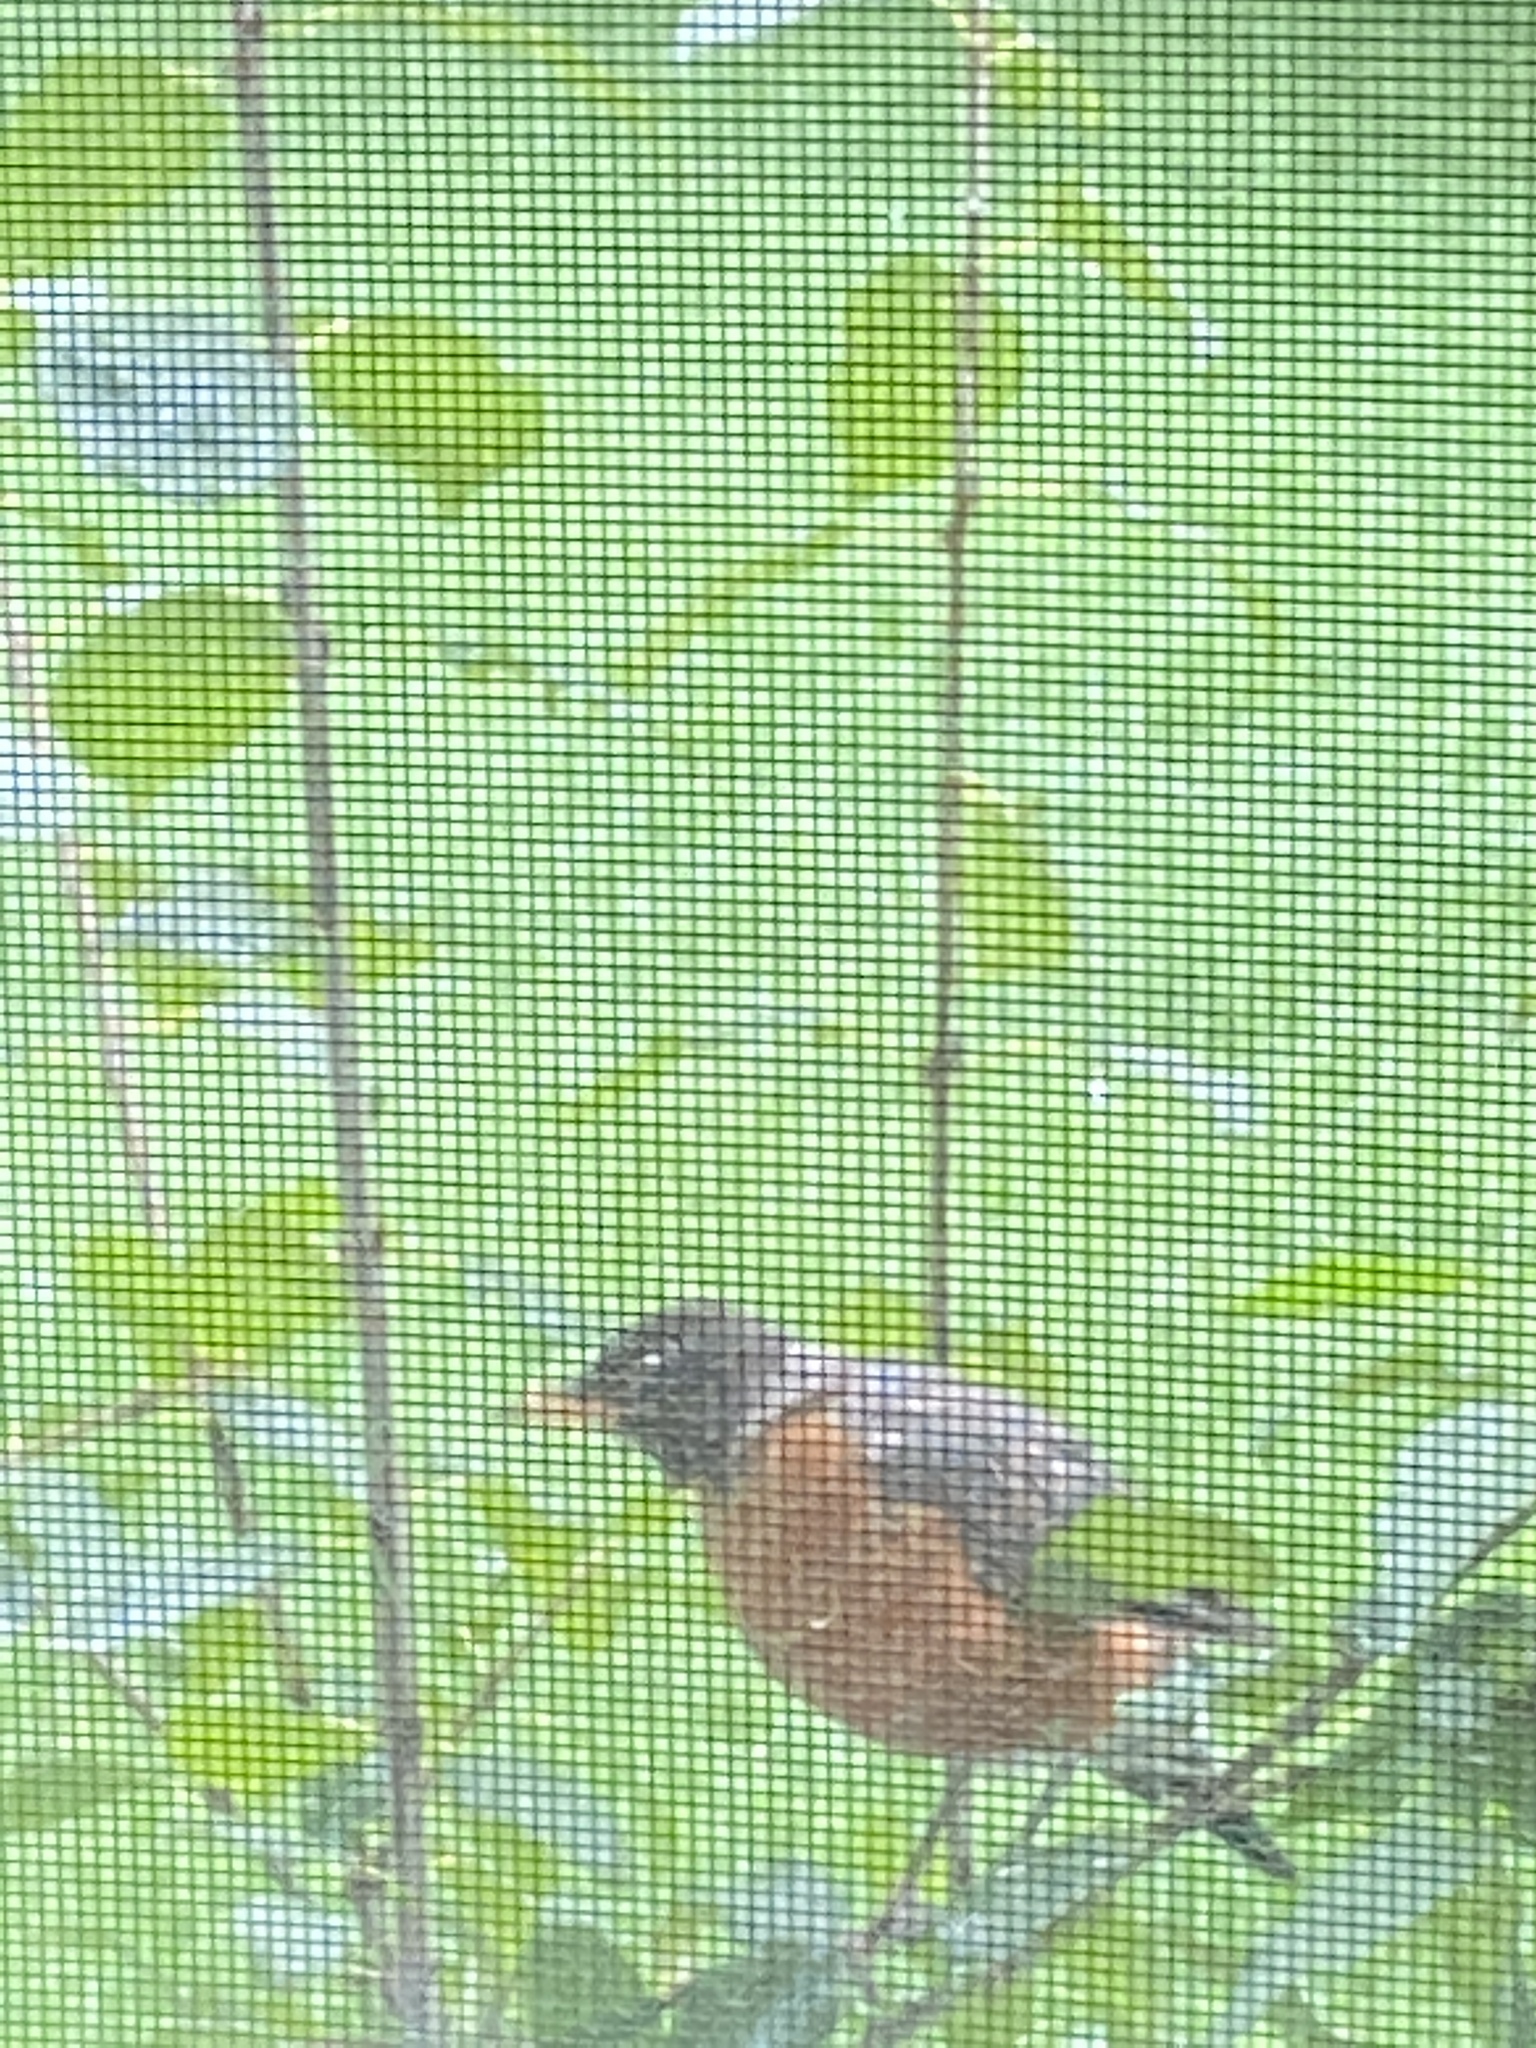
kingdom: Animalia
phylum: Chordata
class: Aves
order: Passeriformes
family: Turdidae
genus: Turdus
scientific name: Turdus migratorius
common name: American robin
